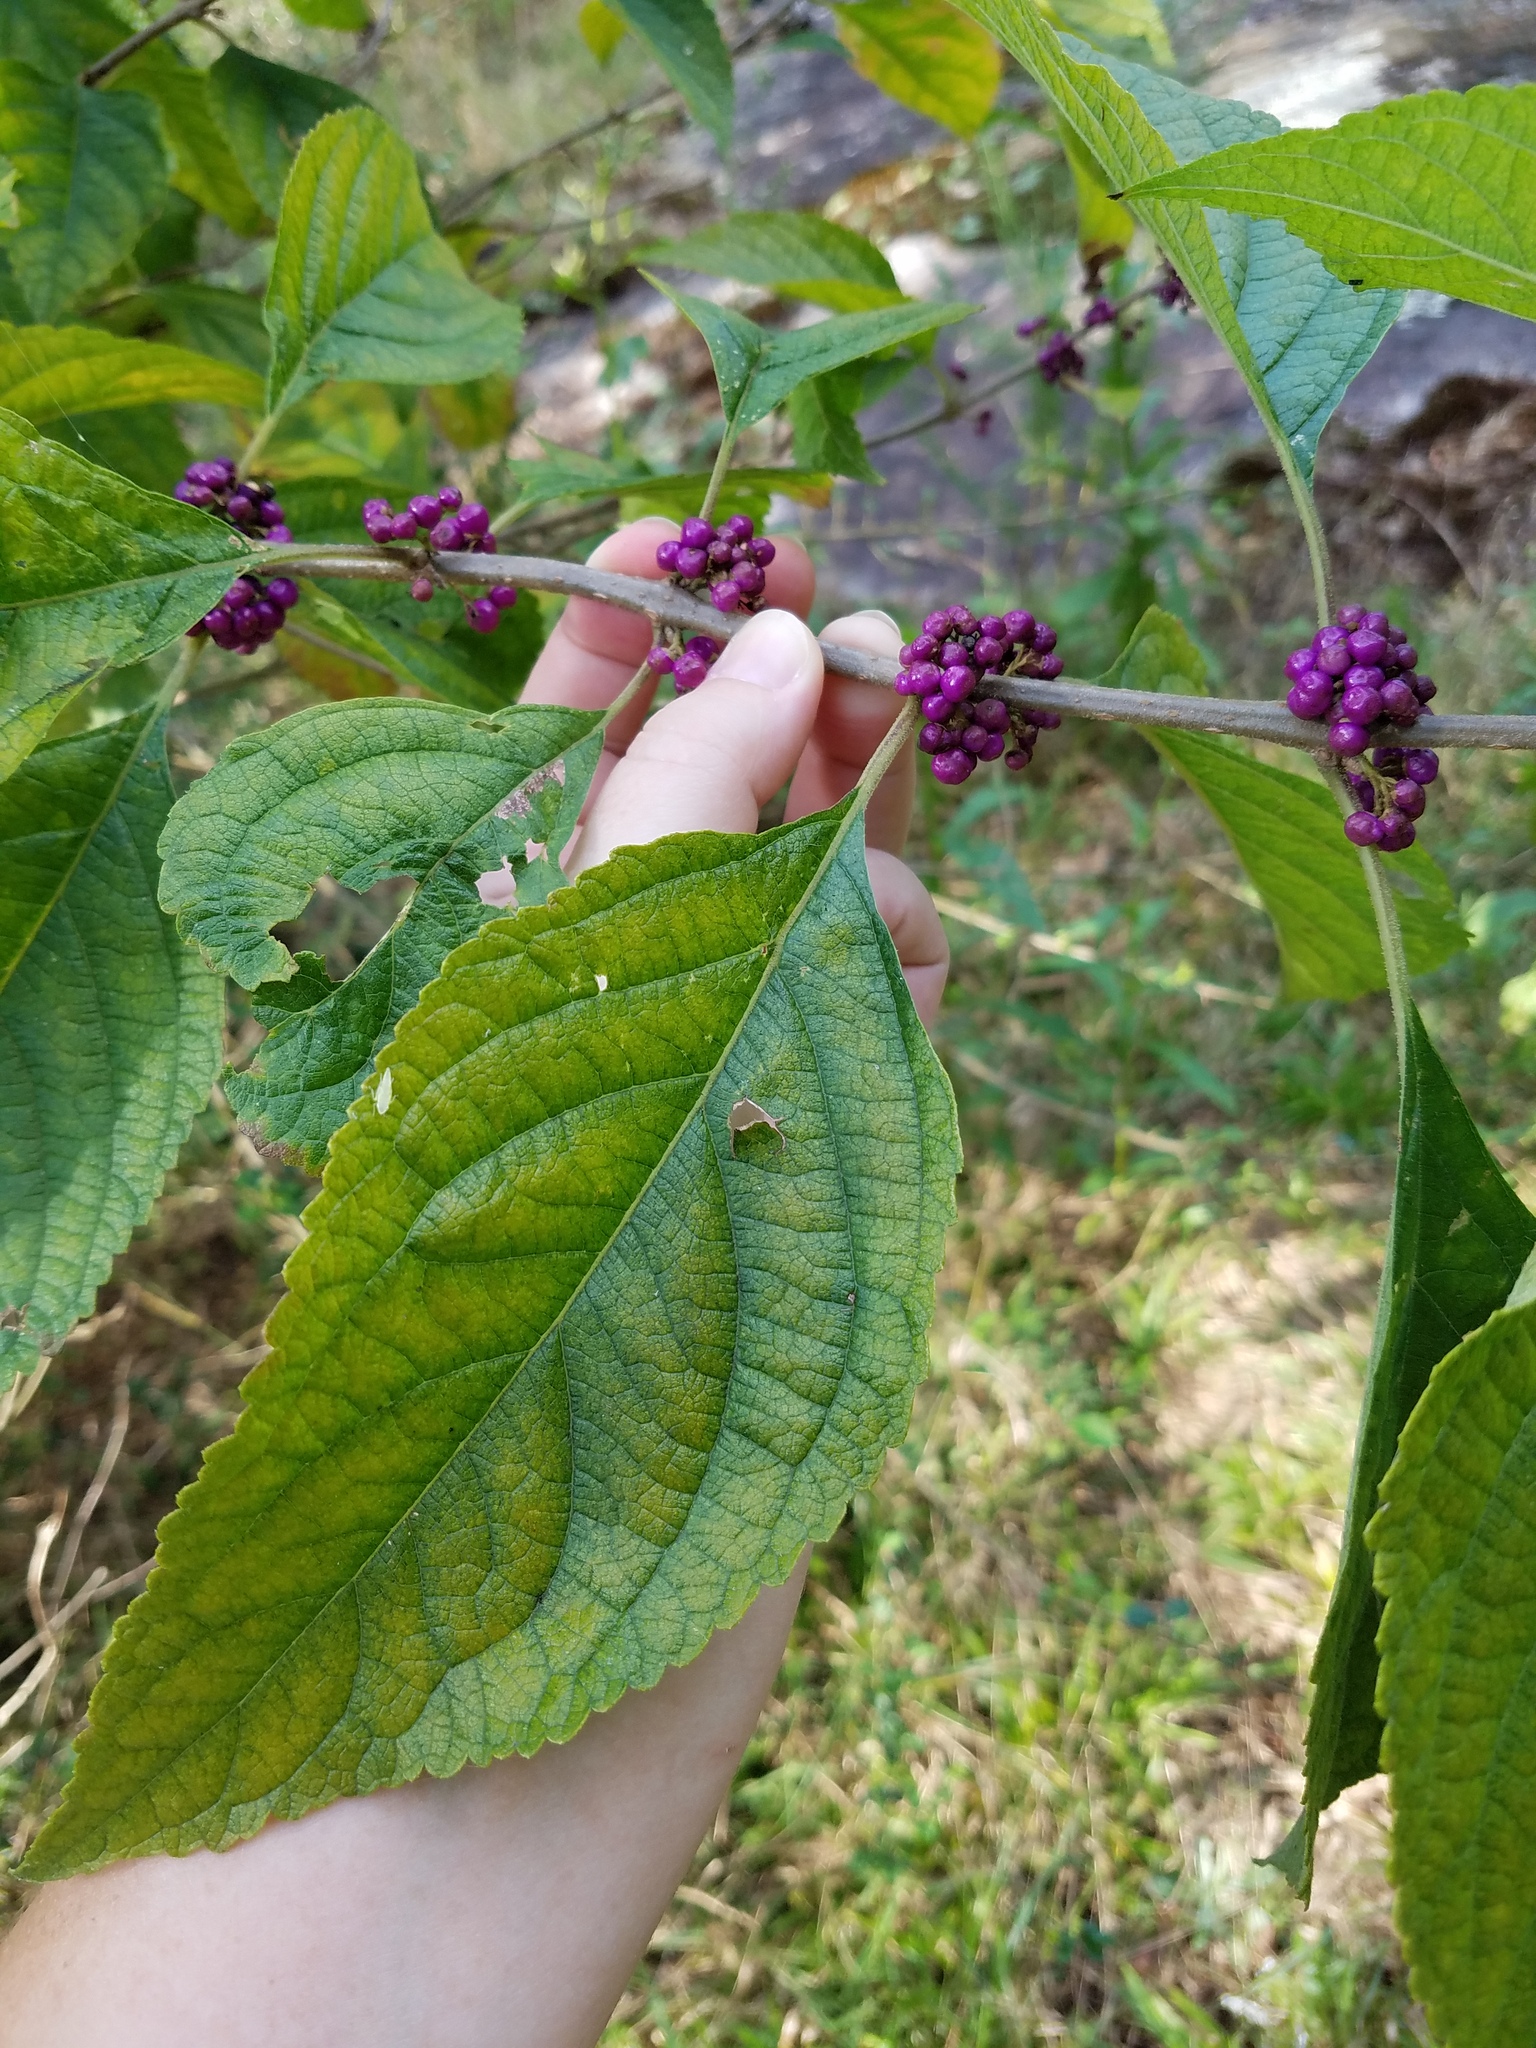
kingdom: Plantae
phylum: Tracheophyta
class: Magnoliopsida
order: Lamiales
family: Lamiaceae
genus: Callicarpa
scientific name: Callicarpa americana
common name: American beautyberry
